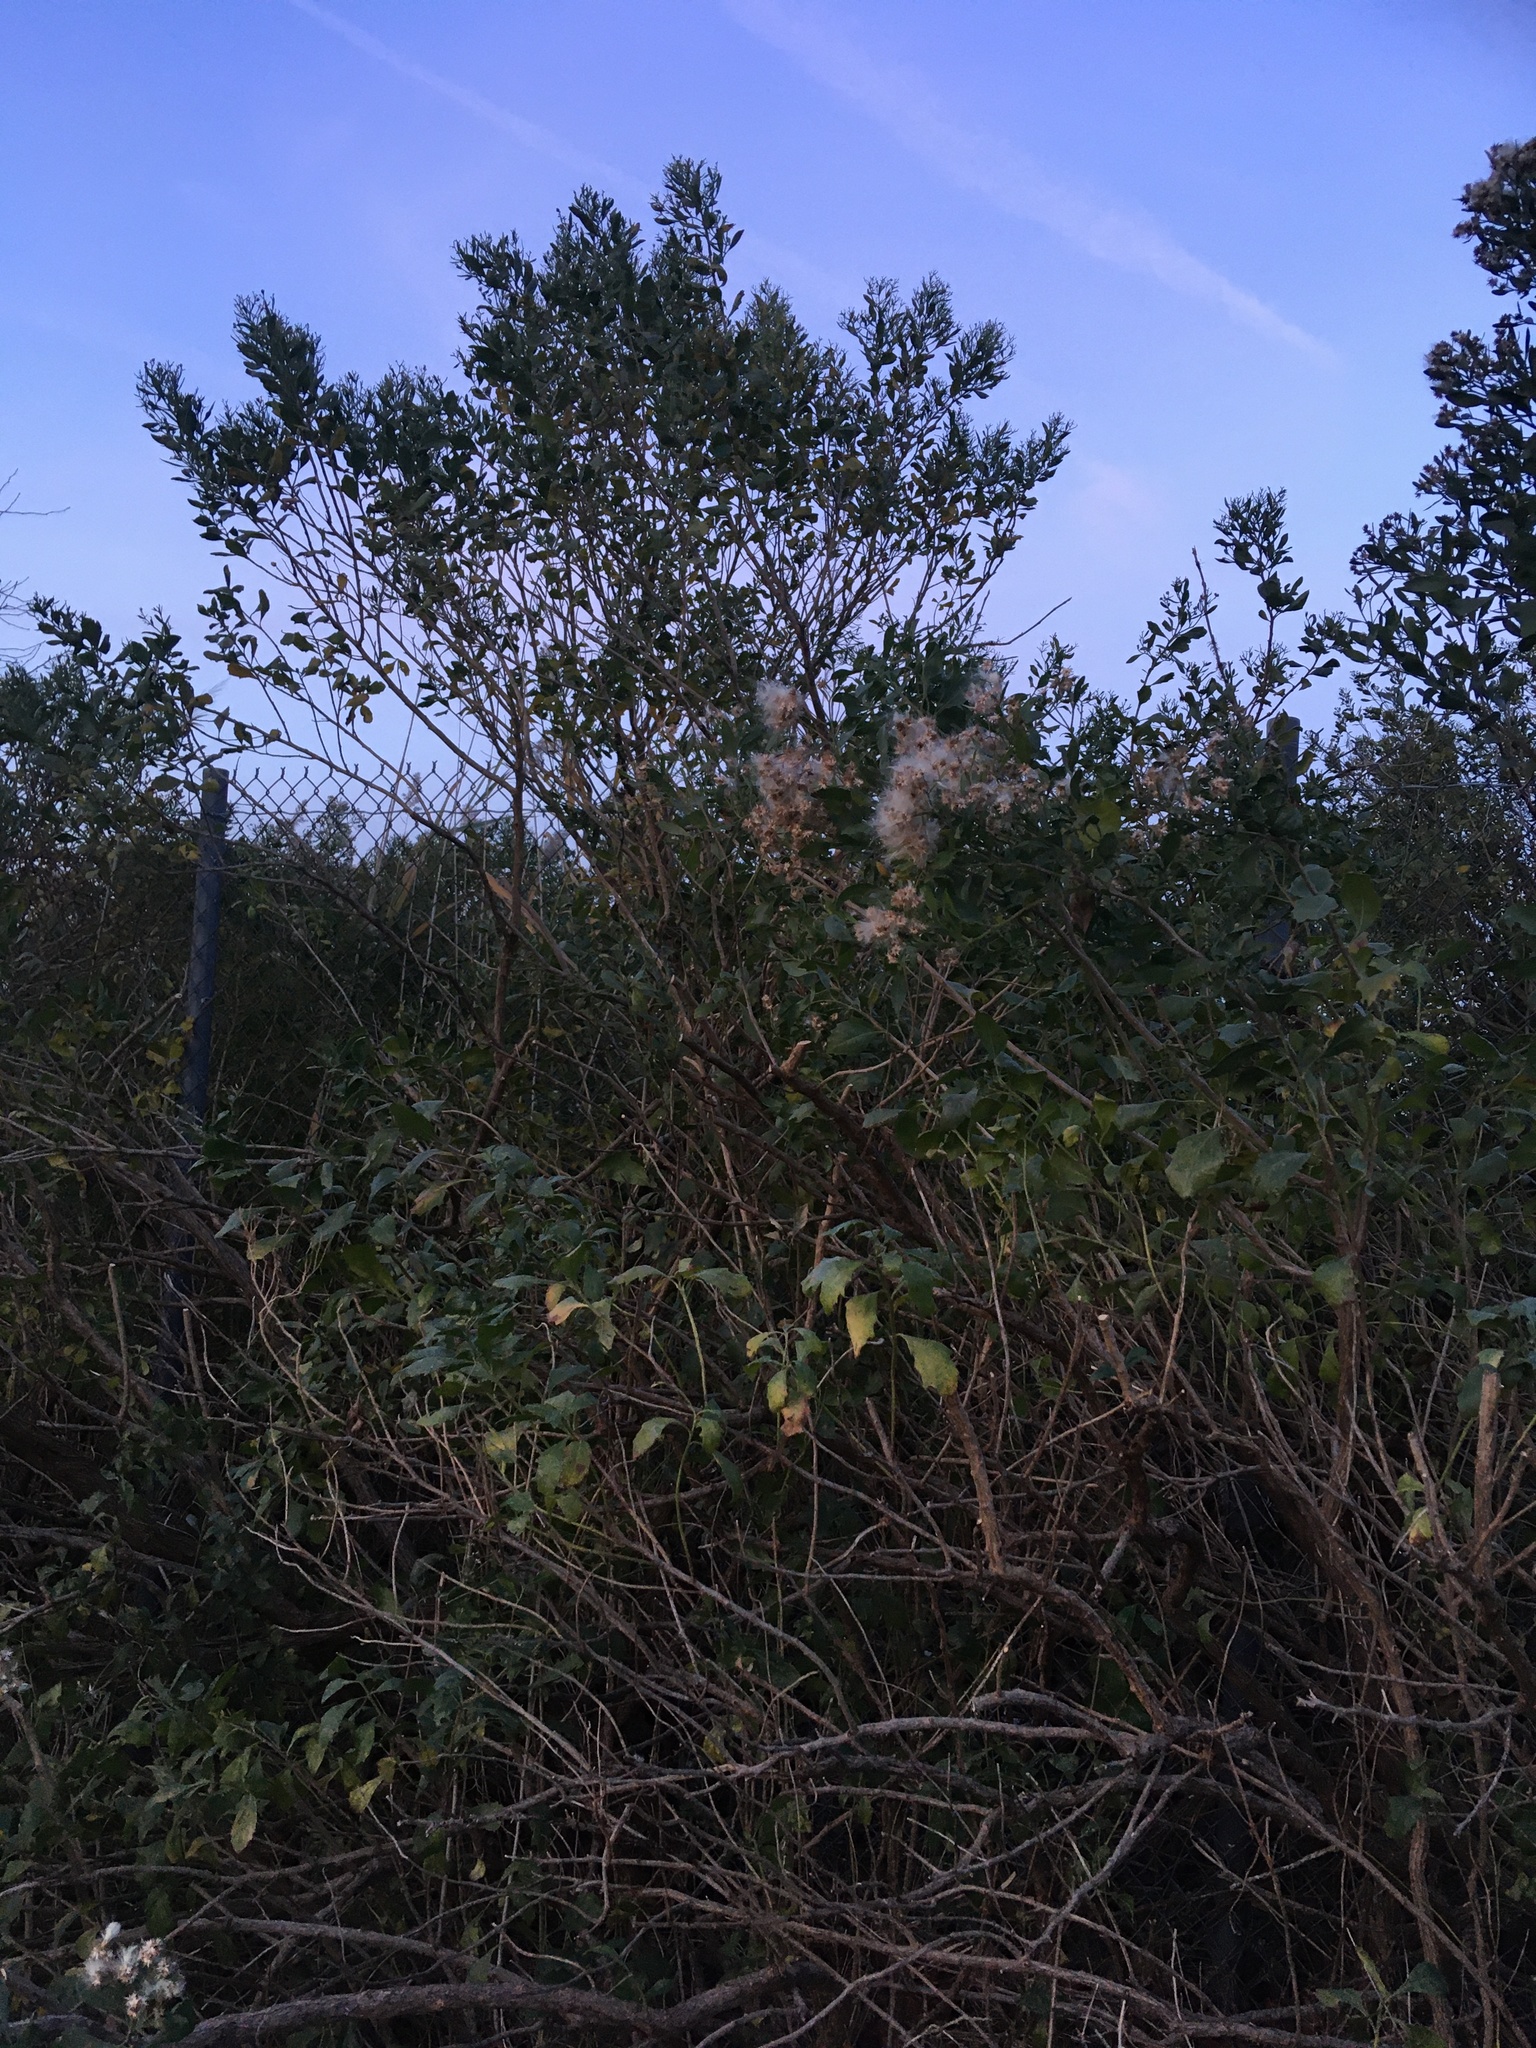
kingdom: Plantae
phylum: Tracheophyta
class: Magnoliopsida
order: Asterales
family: Asteraceae
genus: Baccharis
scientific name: Baccharis halimifolia
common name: Eastern baccharis
